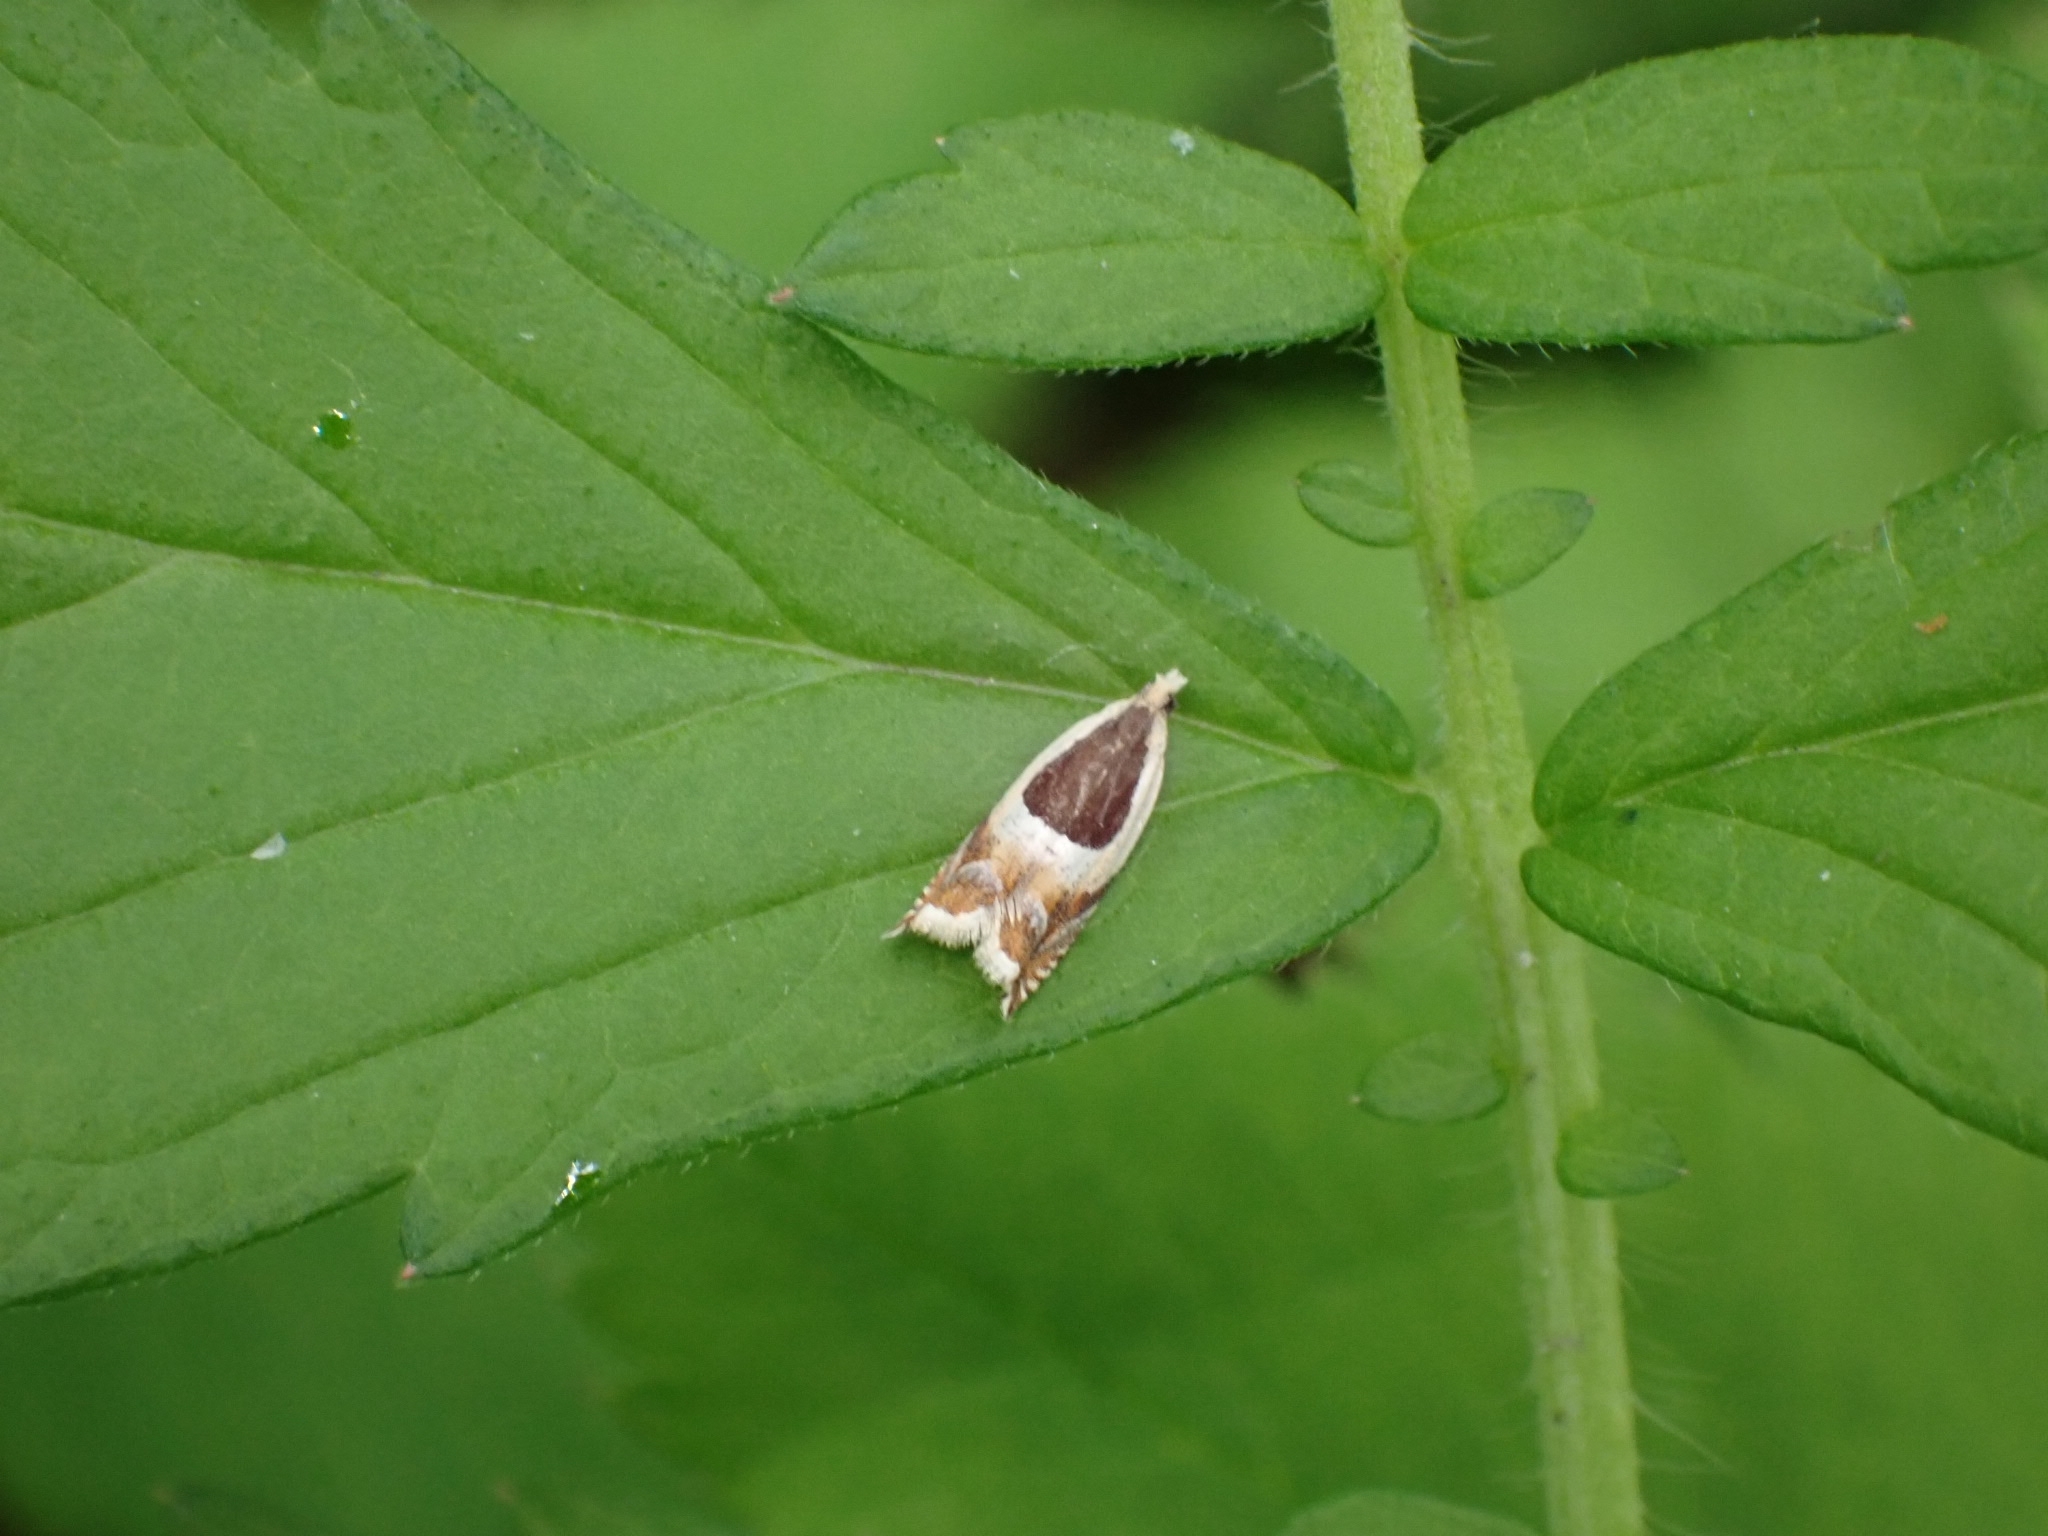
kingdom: Animalia
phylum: Arthropoda
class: Insecta
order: Lepidoptera
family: Tortricidae
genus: Ancylis
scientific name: Ancylis badiana
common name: Common roller
